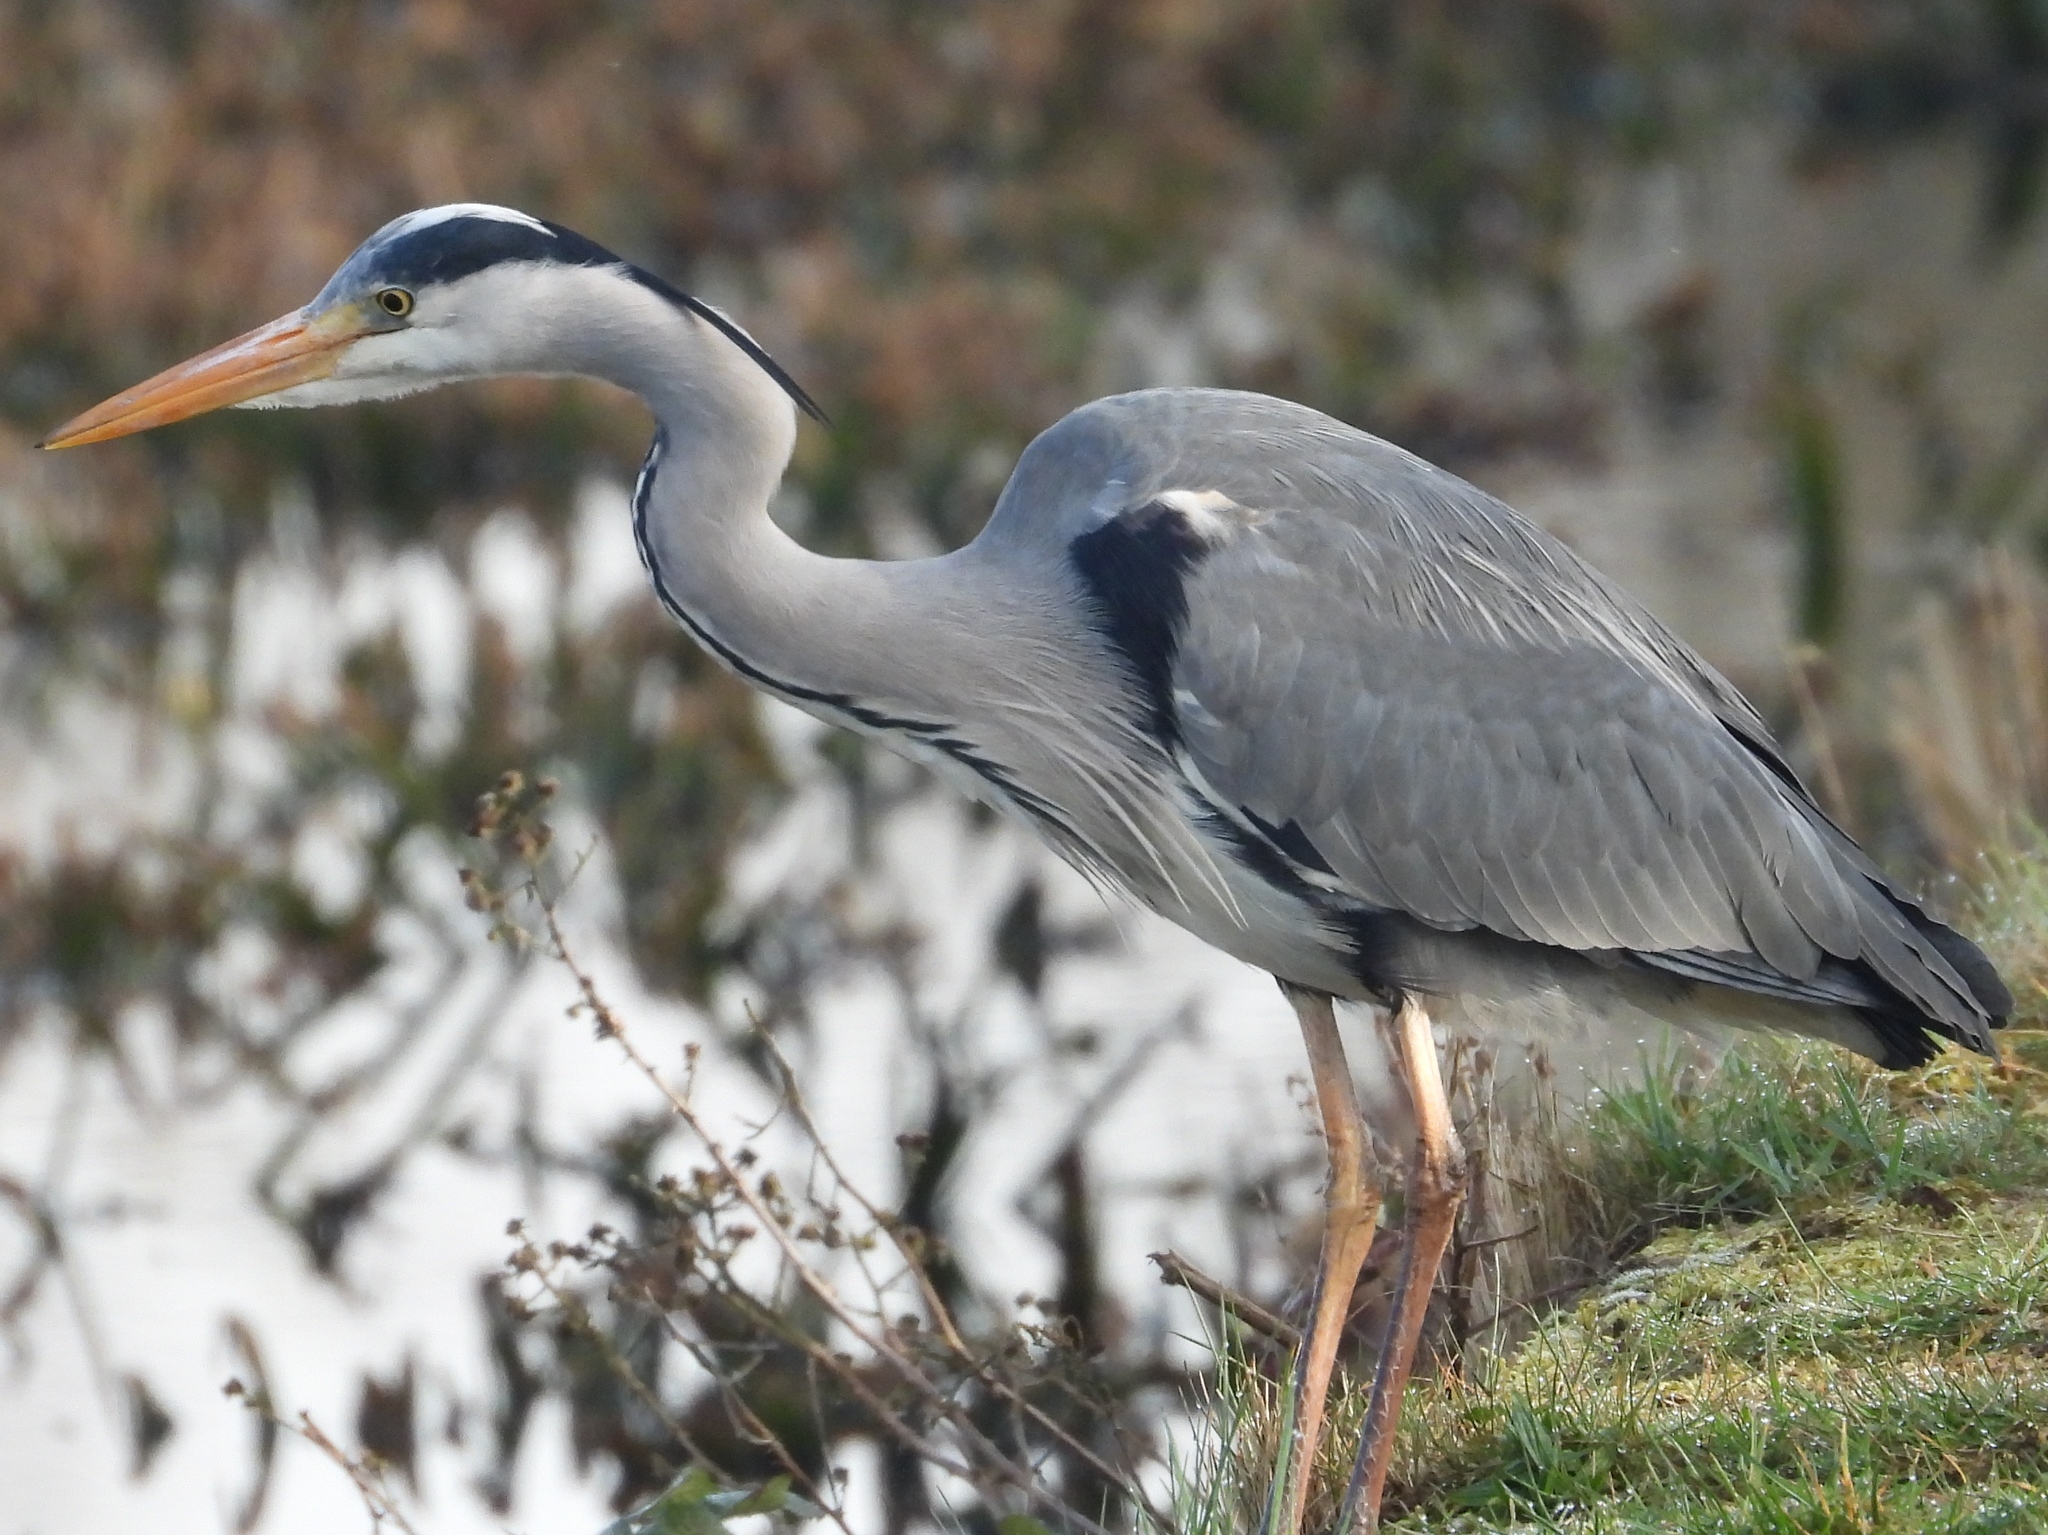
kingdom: Animalia
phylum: Chordata
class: Aves
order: Pelecaniformes
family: Ardeidae
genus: Ardea
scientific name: Ardea cinerea
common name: Grey heron
